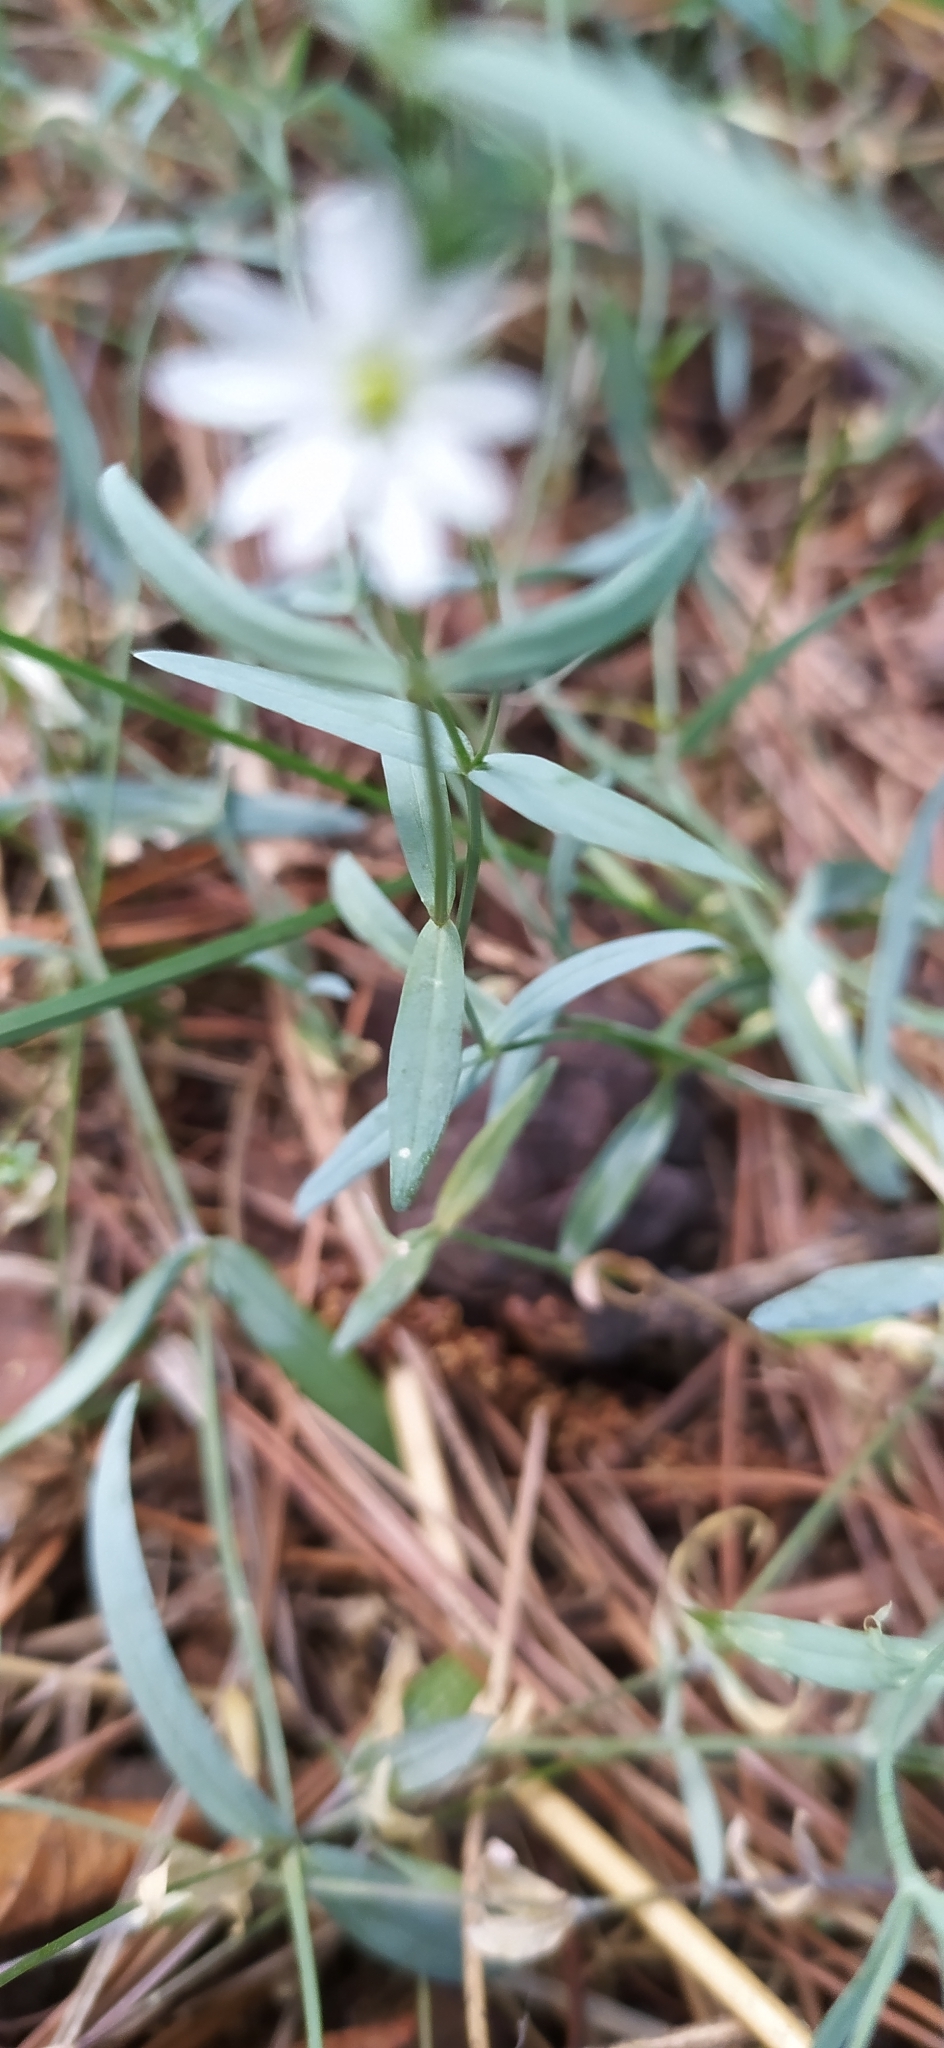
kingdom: Plantae
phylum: Tracheophyta
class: Magnoliopsida
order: Caryophyllales
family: Caryophyllaceae
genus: Stellaria
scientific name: Stellaria palustris
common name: Marsh stitchwort
